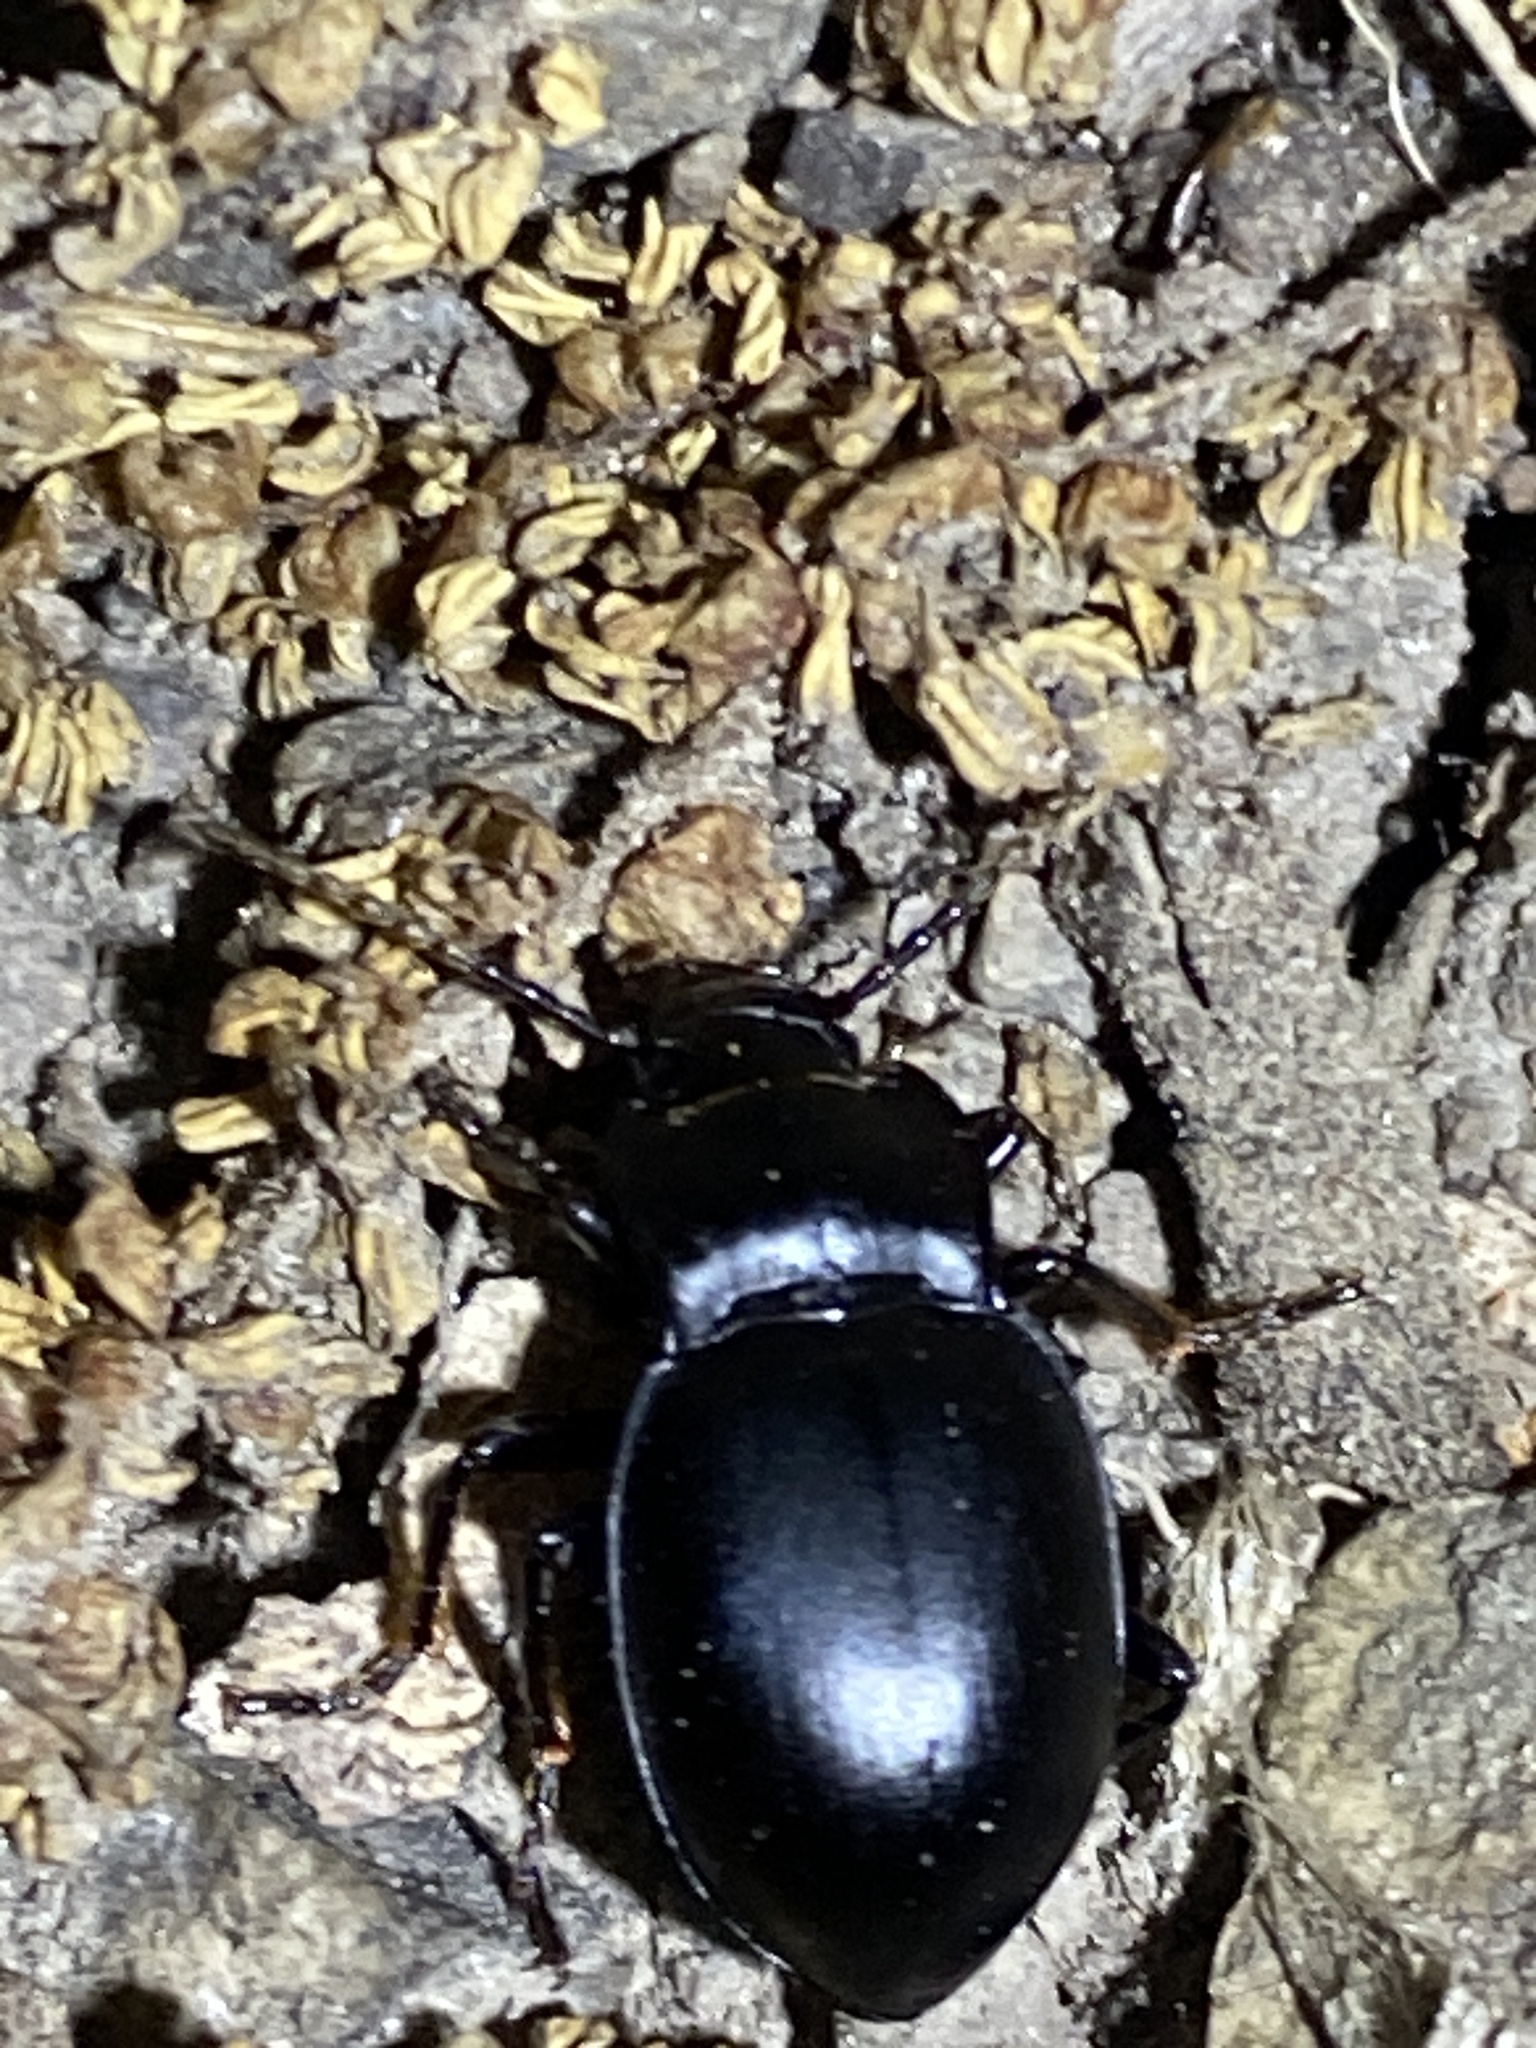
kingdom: Animalia
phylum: Arthropoda
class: Insecta
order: Coleoptera
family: Carabidae
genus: Metrius
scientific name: Metrius contractus
